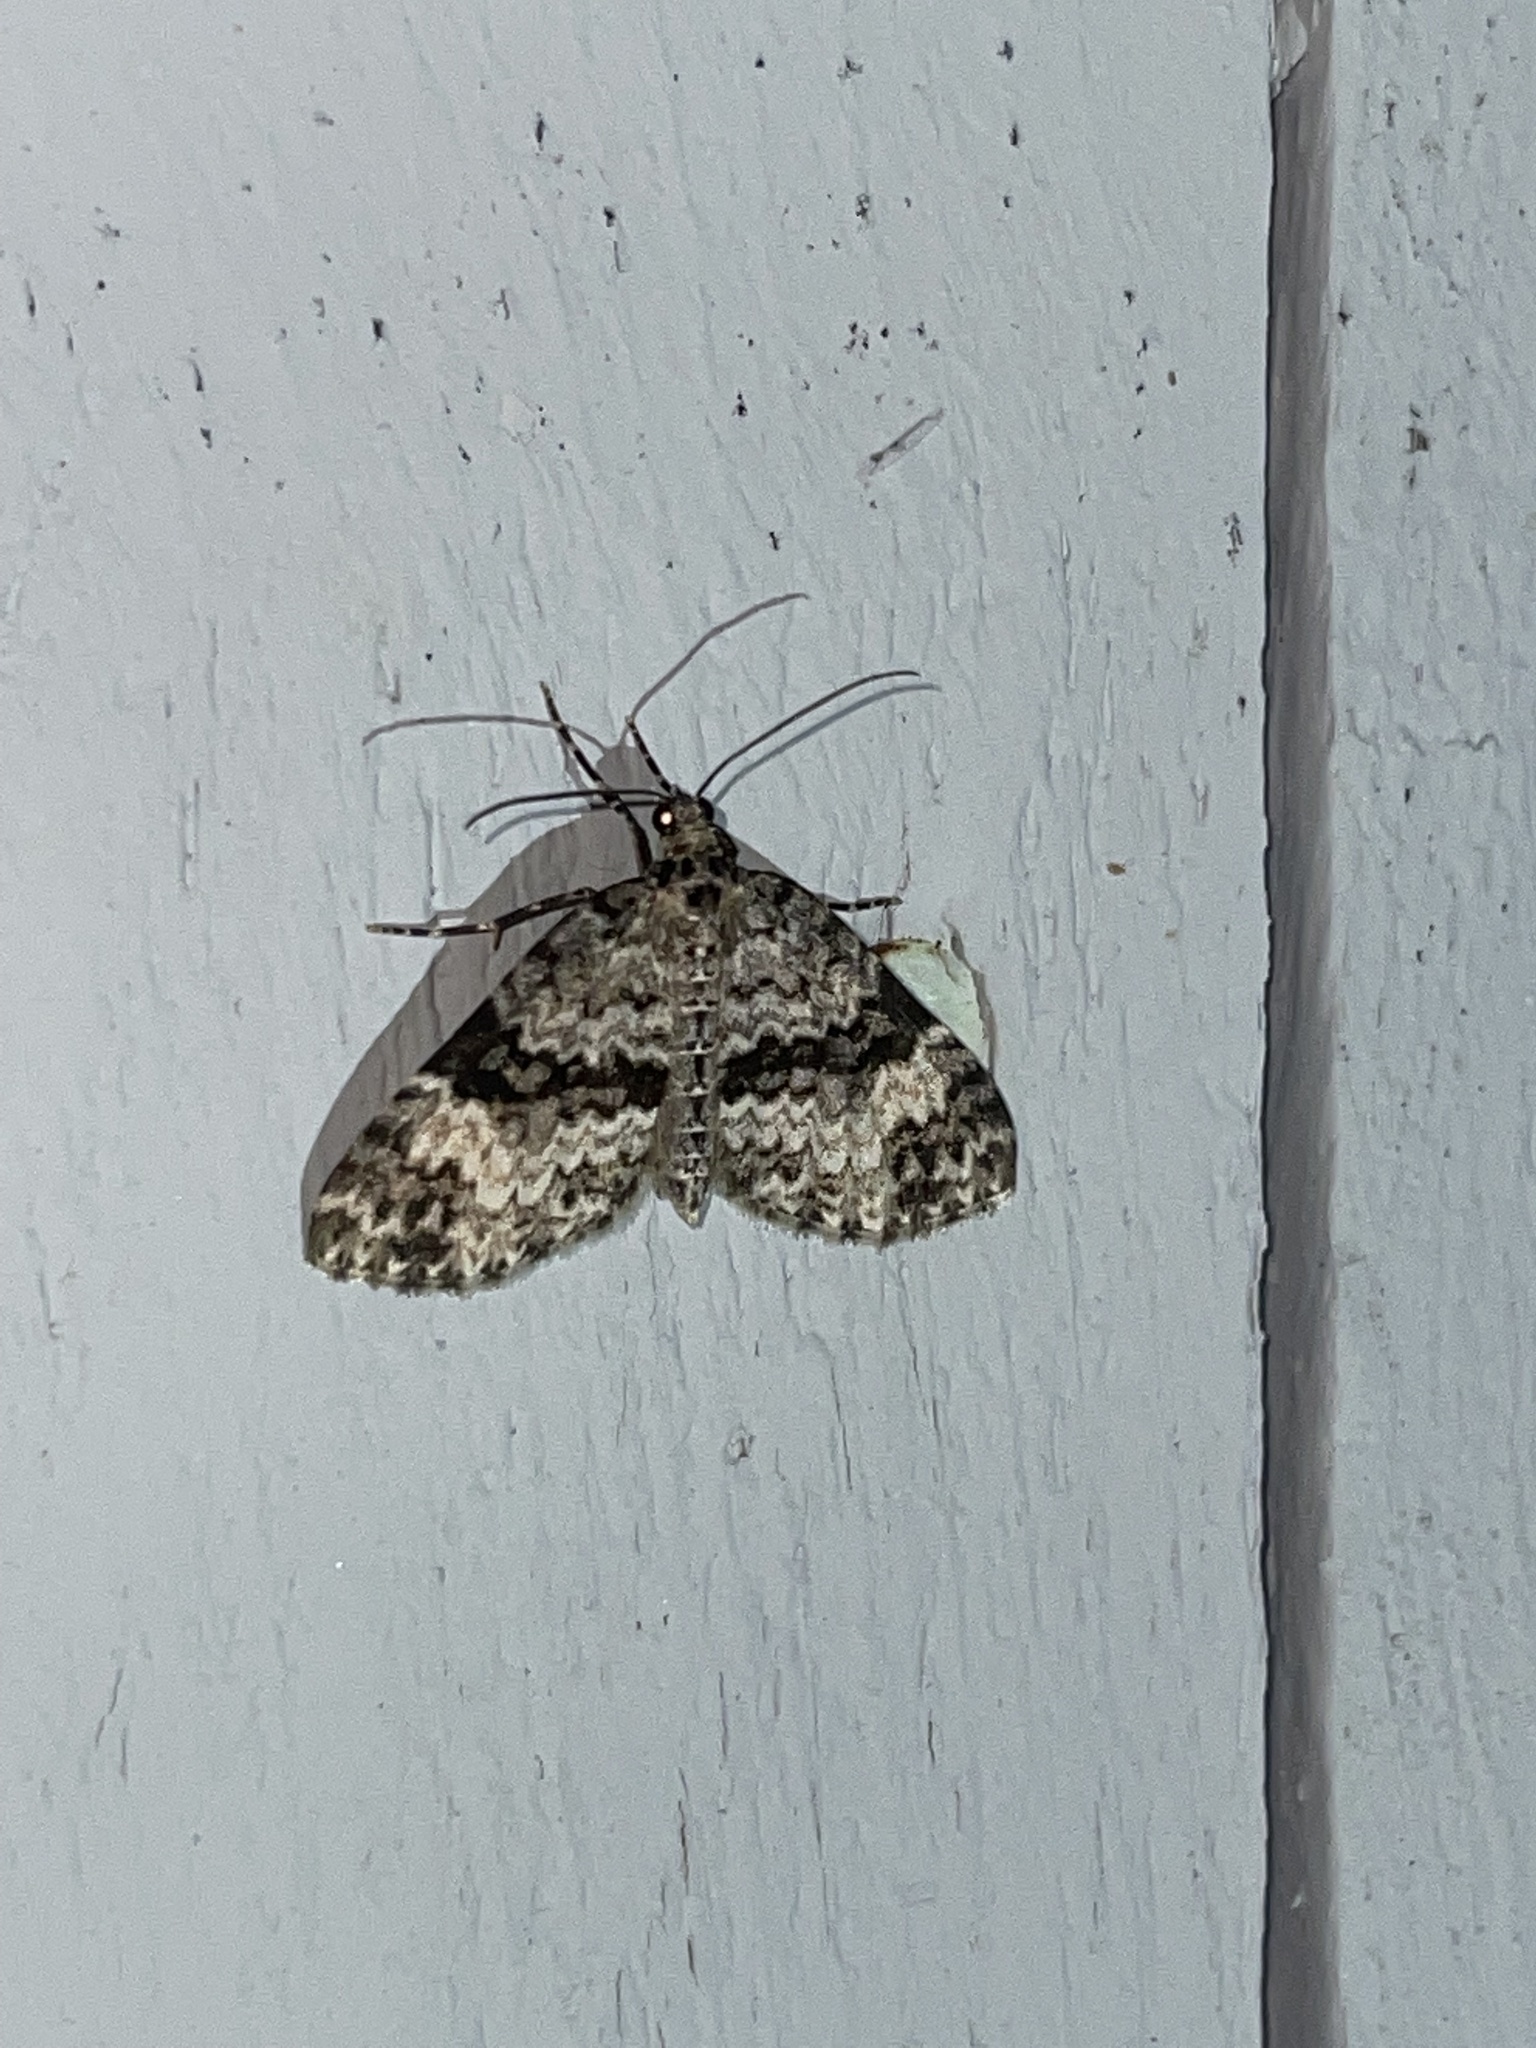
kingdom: Animalia
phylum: Arthropoda
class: Insecta
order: Lepidoptera
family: Geometridae
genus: Spargania
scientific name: Spargania magnoliata
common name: Double-banded carpet
